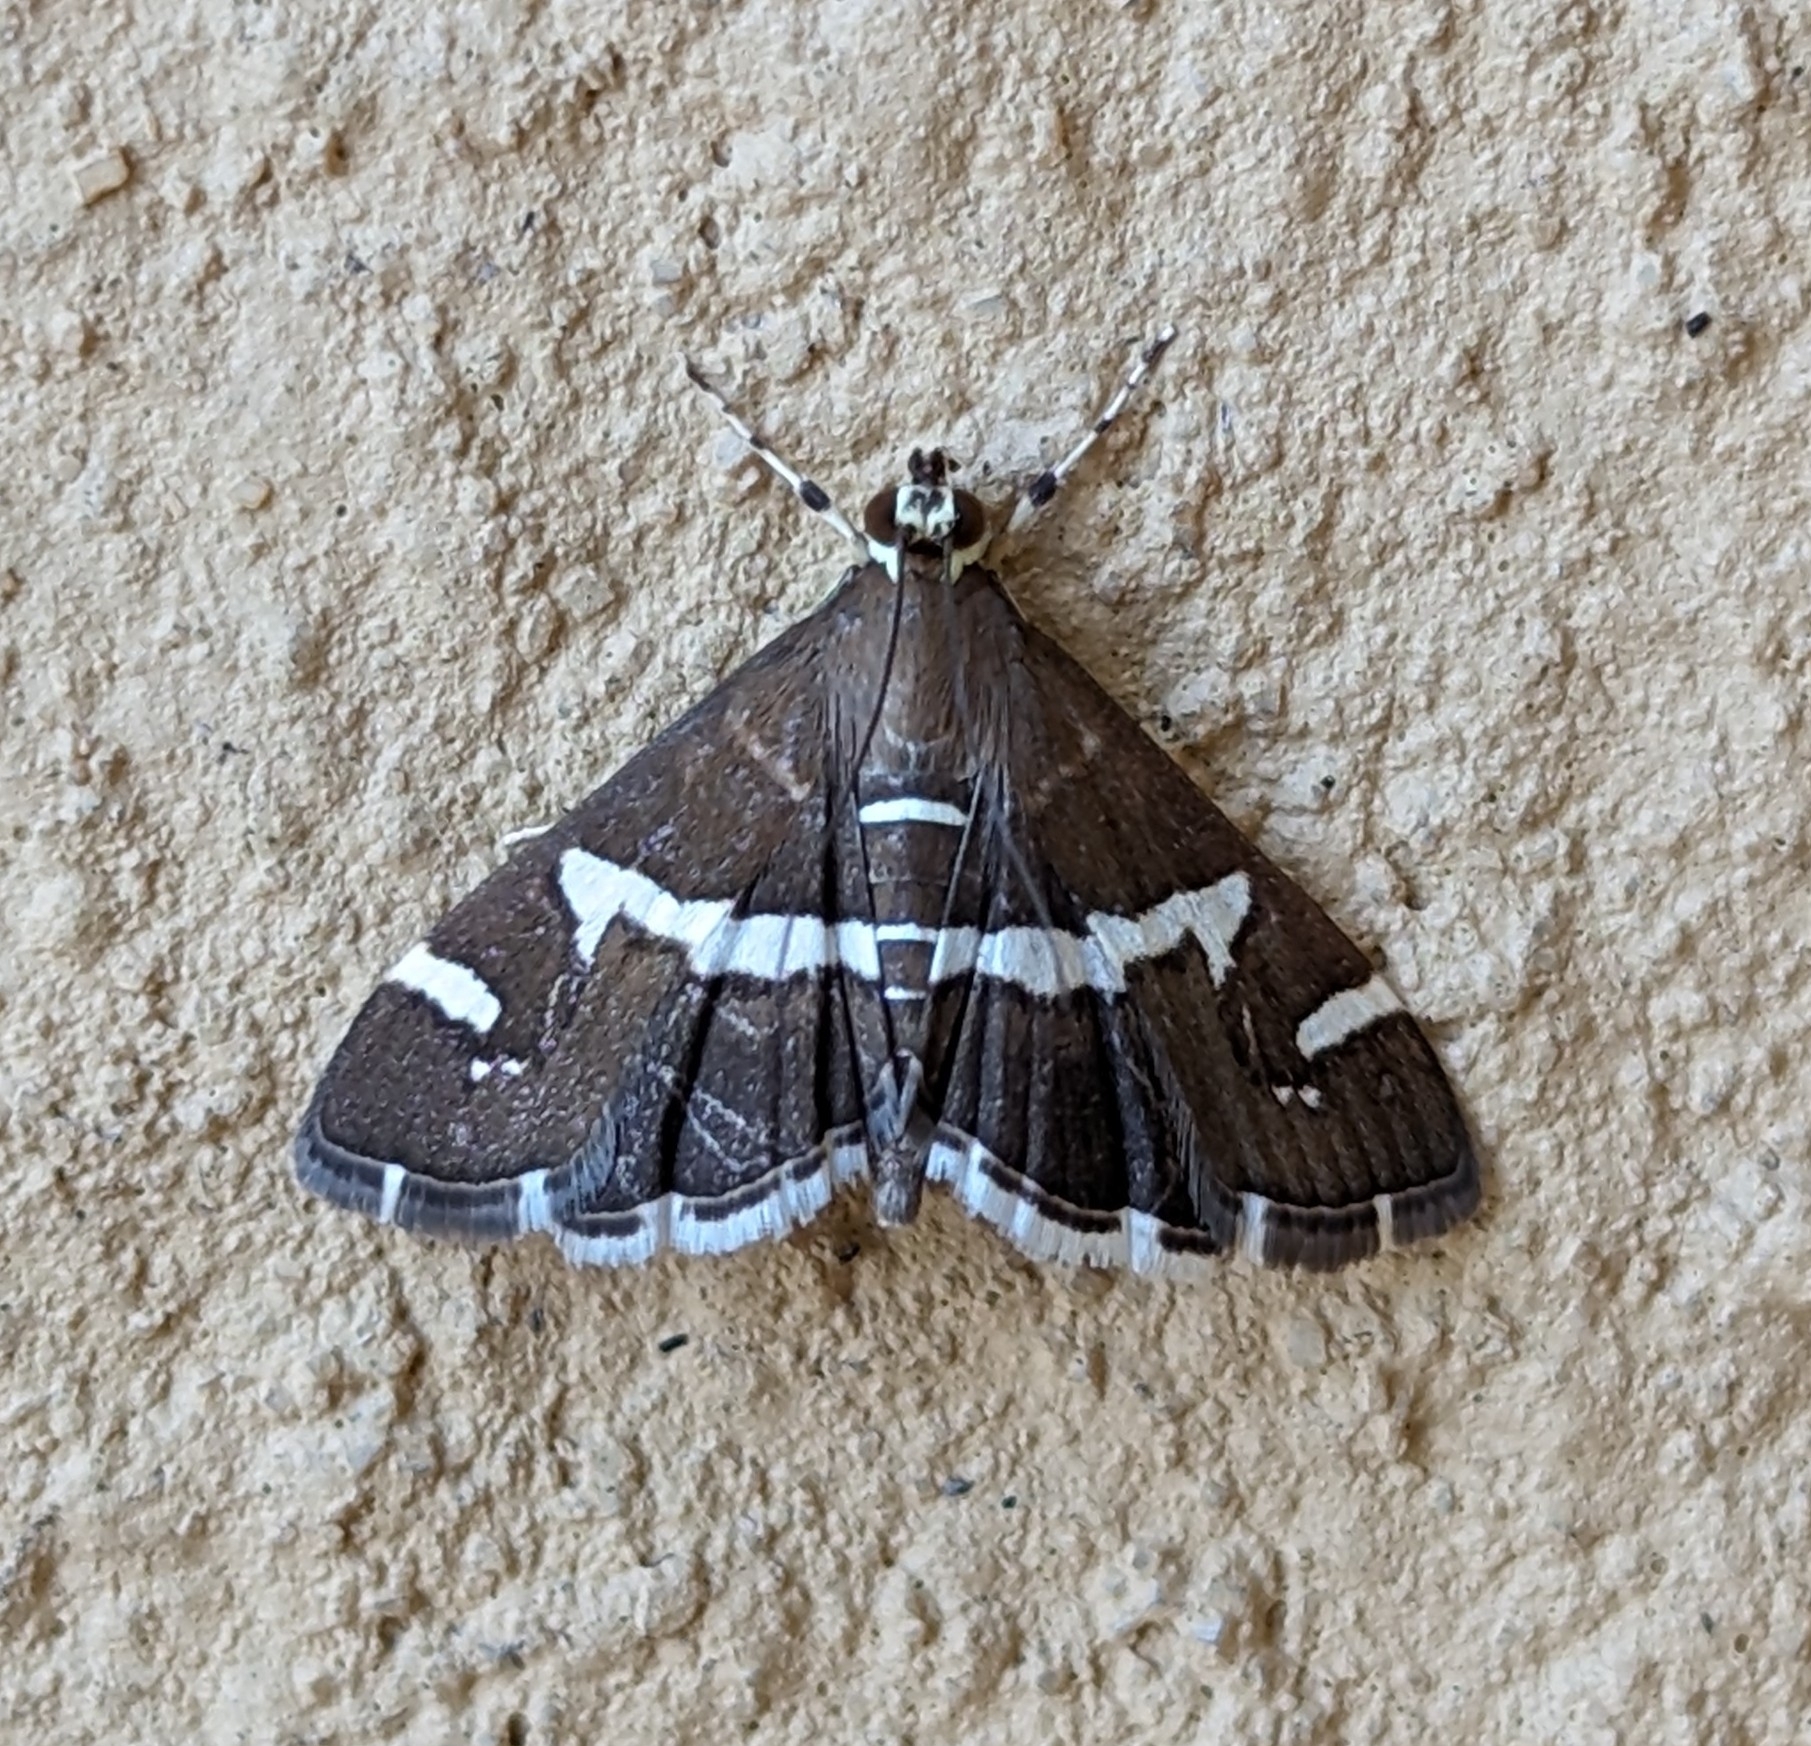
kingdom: Animalia
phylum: Arthropoda
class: Insecta
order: Lepidoptera
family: Crambidae
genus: Spoladea
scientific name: Spoladea recurvalis
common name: Beet webworm moth
